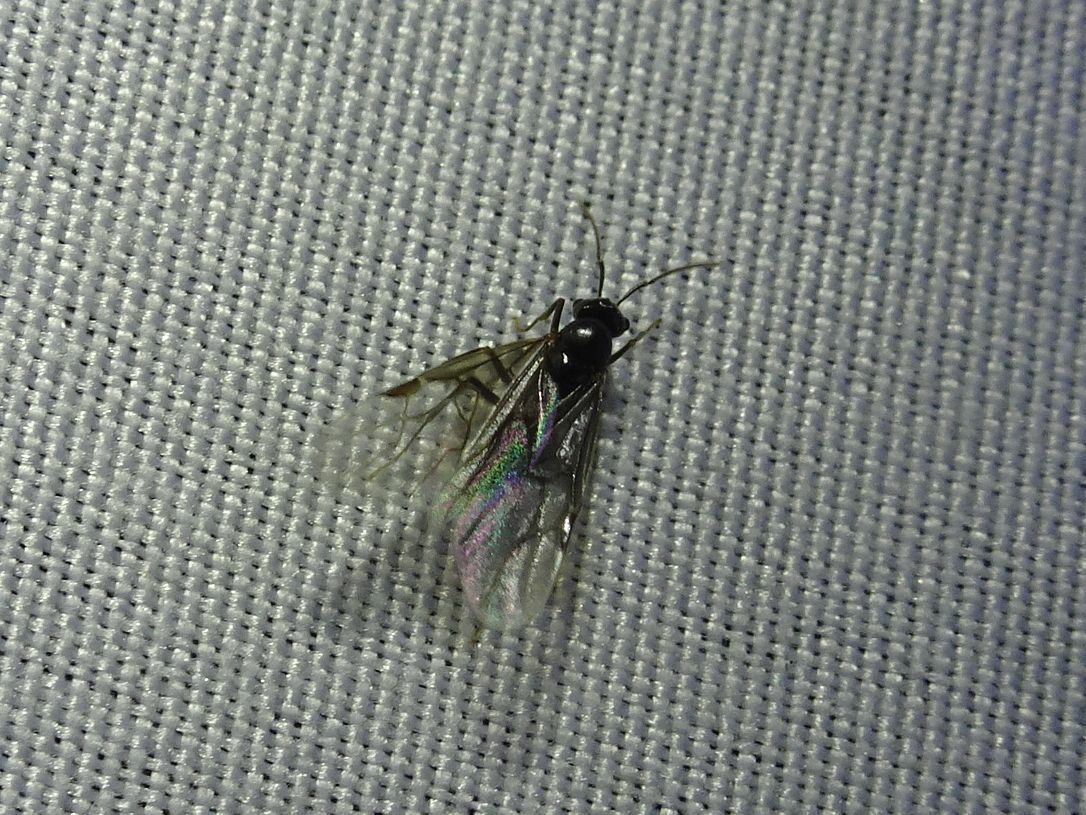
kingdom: Animalia
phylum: Arthropoda
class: Insecta
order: Hymenoptera
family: Formicidae
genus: Lasius
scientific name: Lasius fuliginosus
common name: Jet ant
